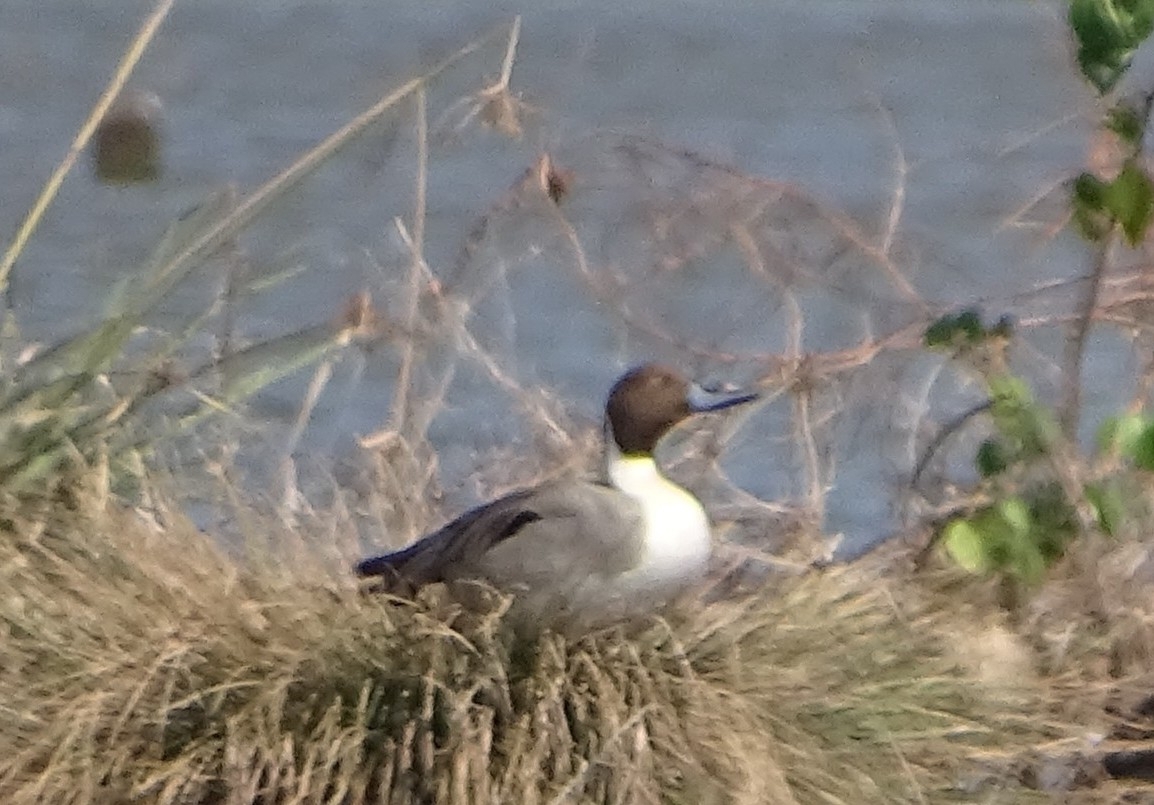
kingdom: Animalia
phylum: Chordata
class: Aves
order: Anseriformes
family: Anatidae
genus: Anas
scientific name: Anas acuta
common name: Northern pintail
